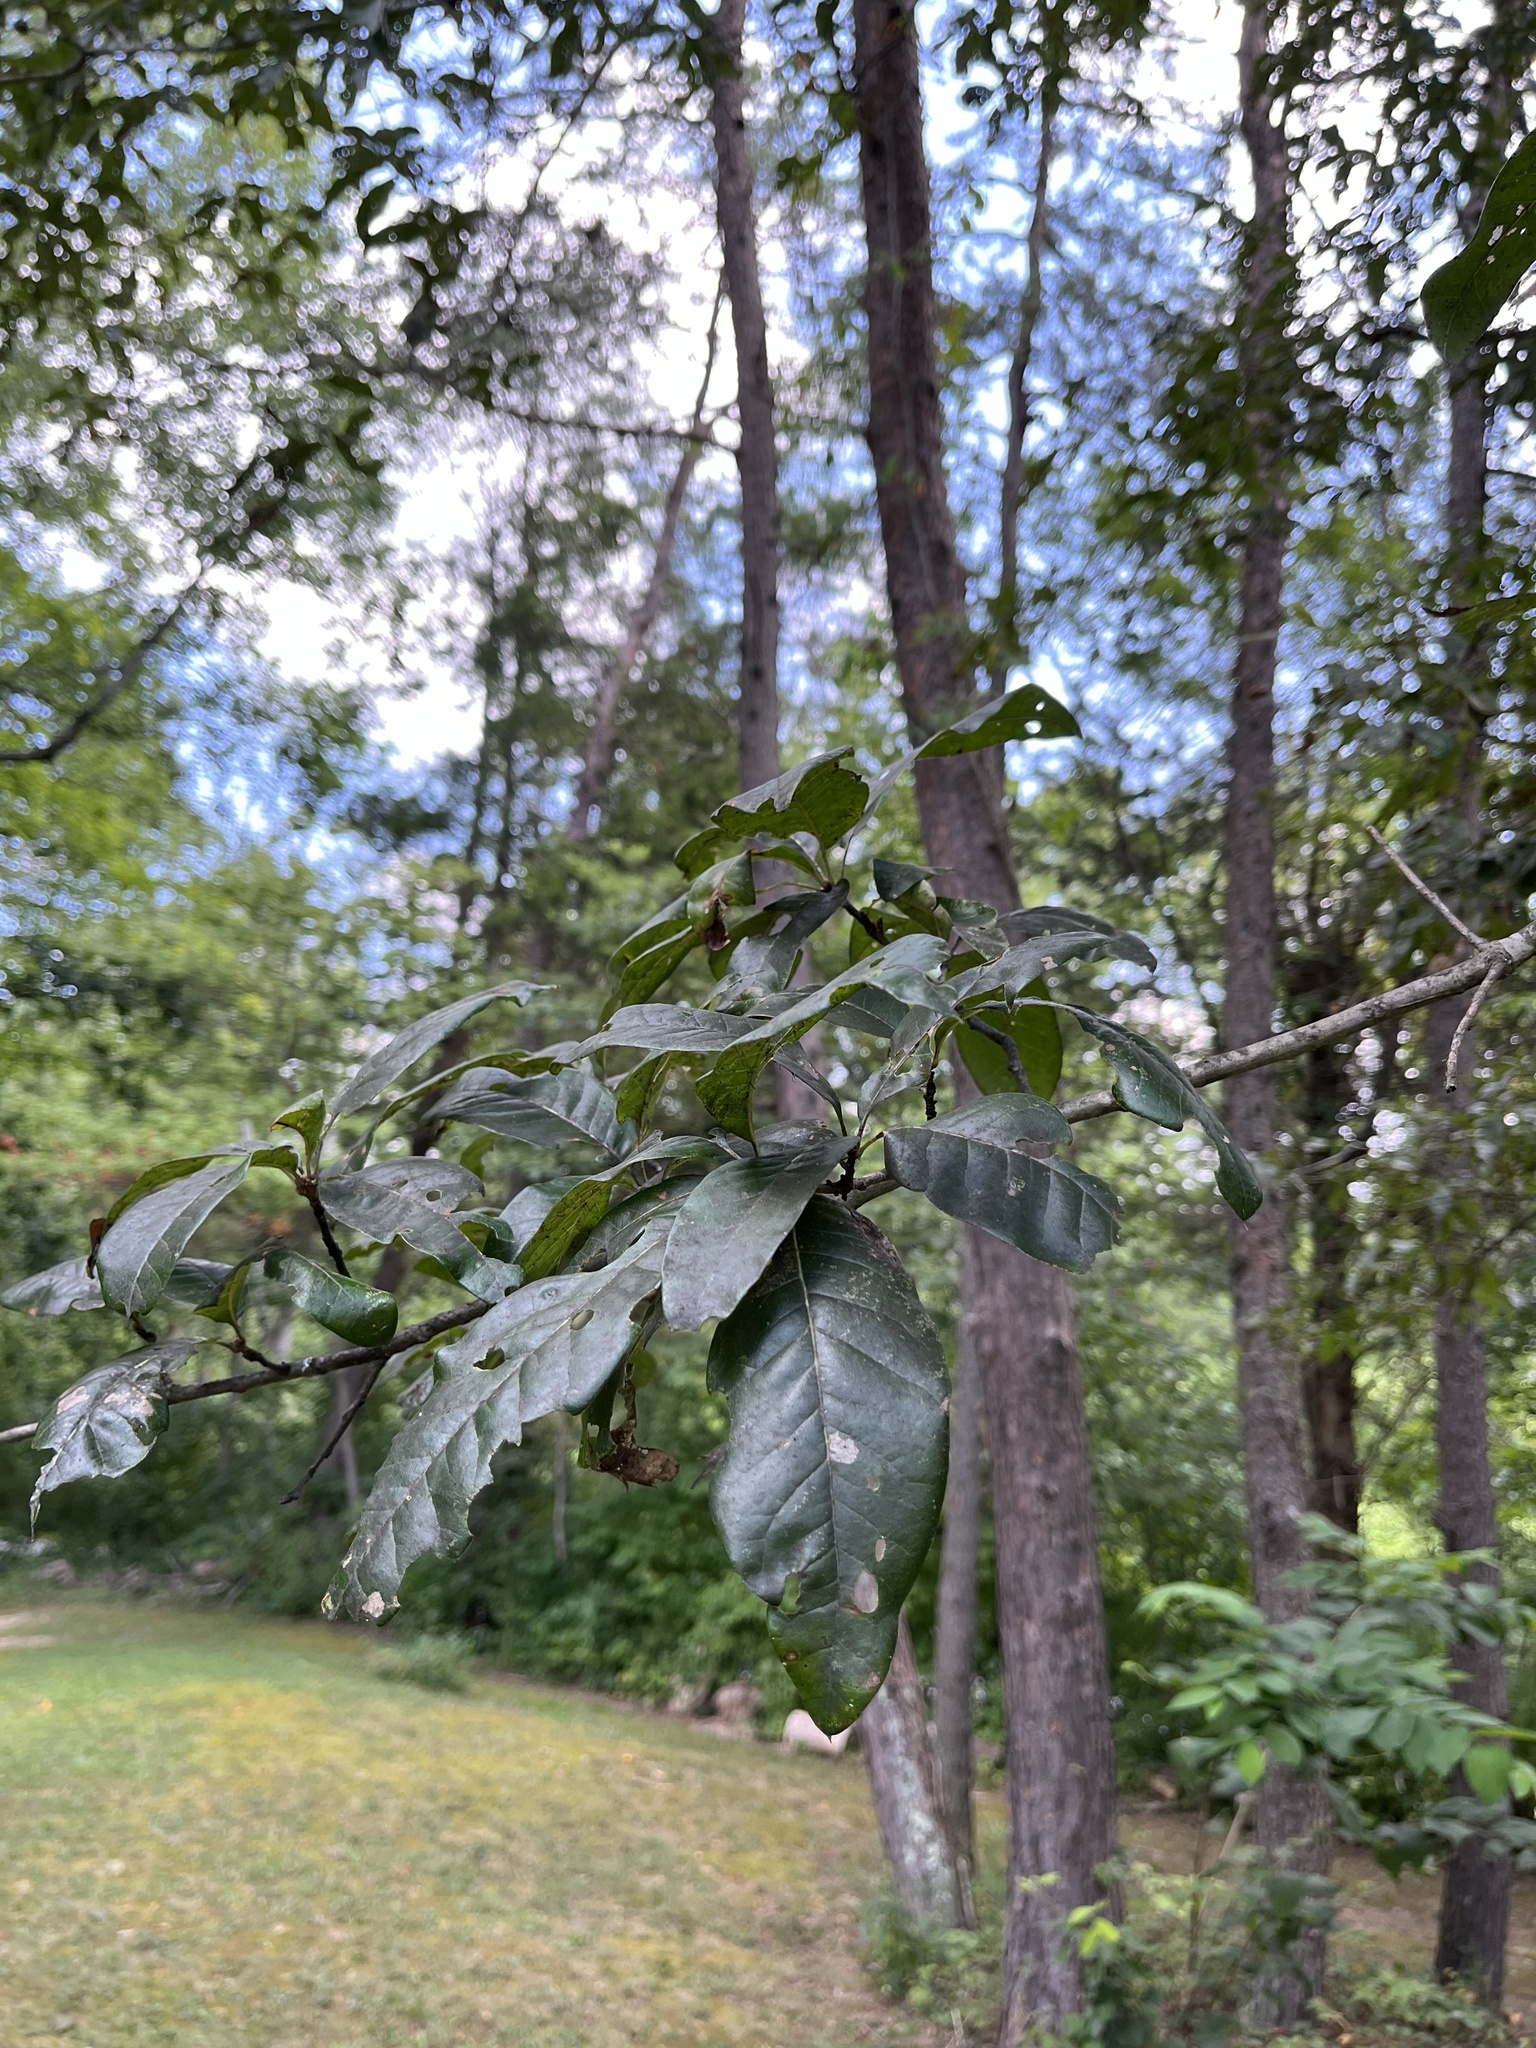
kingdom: Plantae
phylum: Tracheophyta
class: Magnoliopsida
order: Fagales
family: Fagaceae
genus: Quercus
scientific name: Quercus imbricaria
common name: Shingle oak
